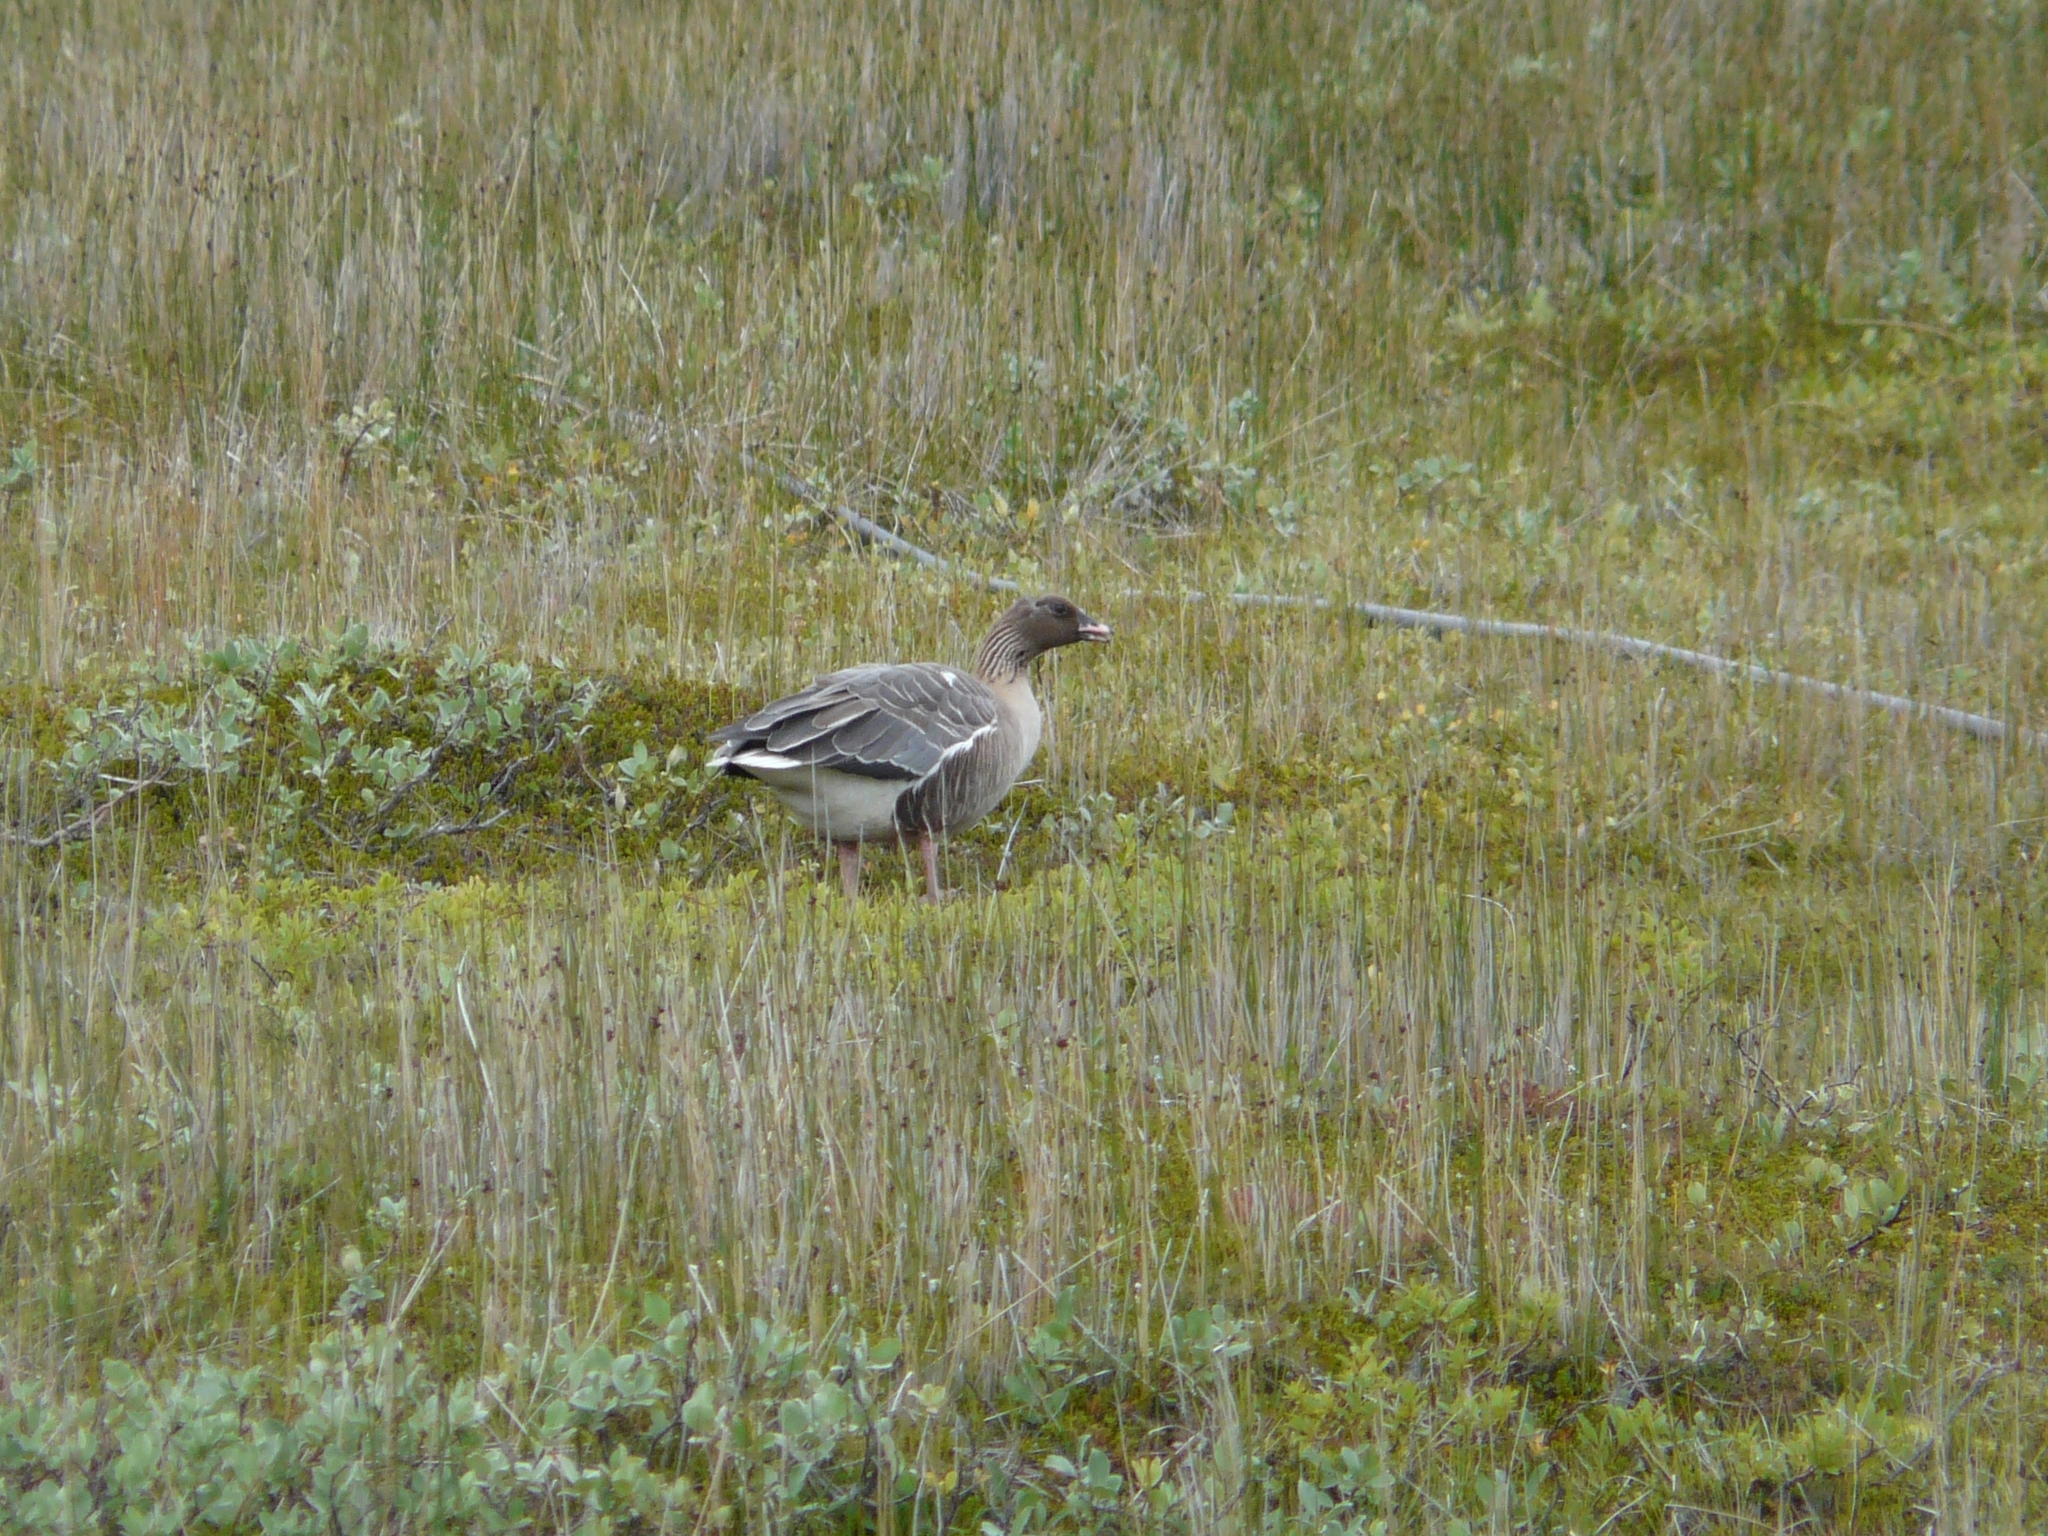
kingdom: Animalia
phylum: Chordata
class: Aves
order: Anseriformes
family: Anatidae
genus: Anser
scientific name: Anser brachyrhynchus
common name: Pink-footed goose
